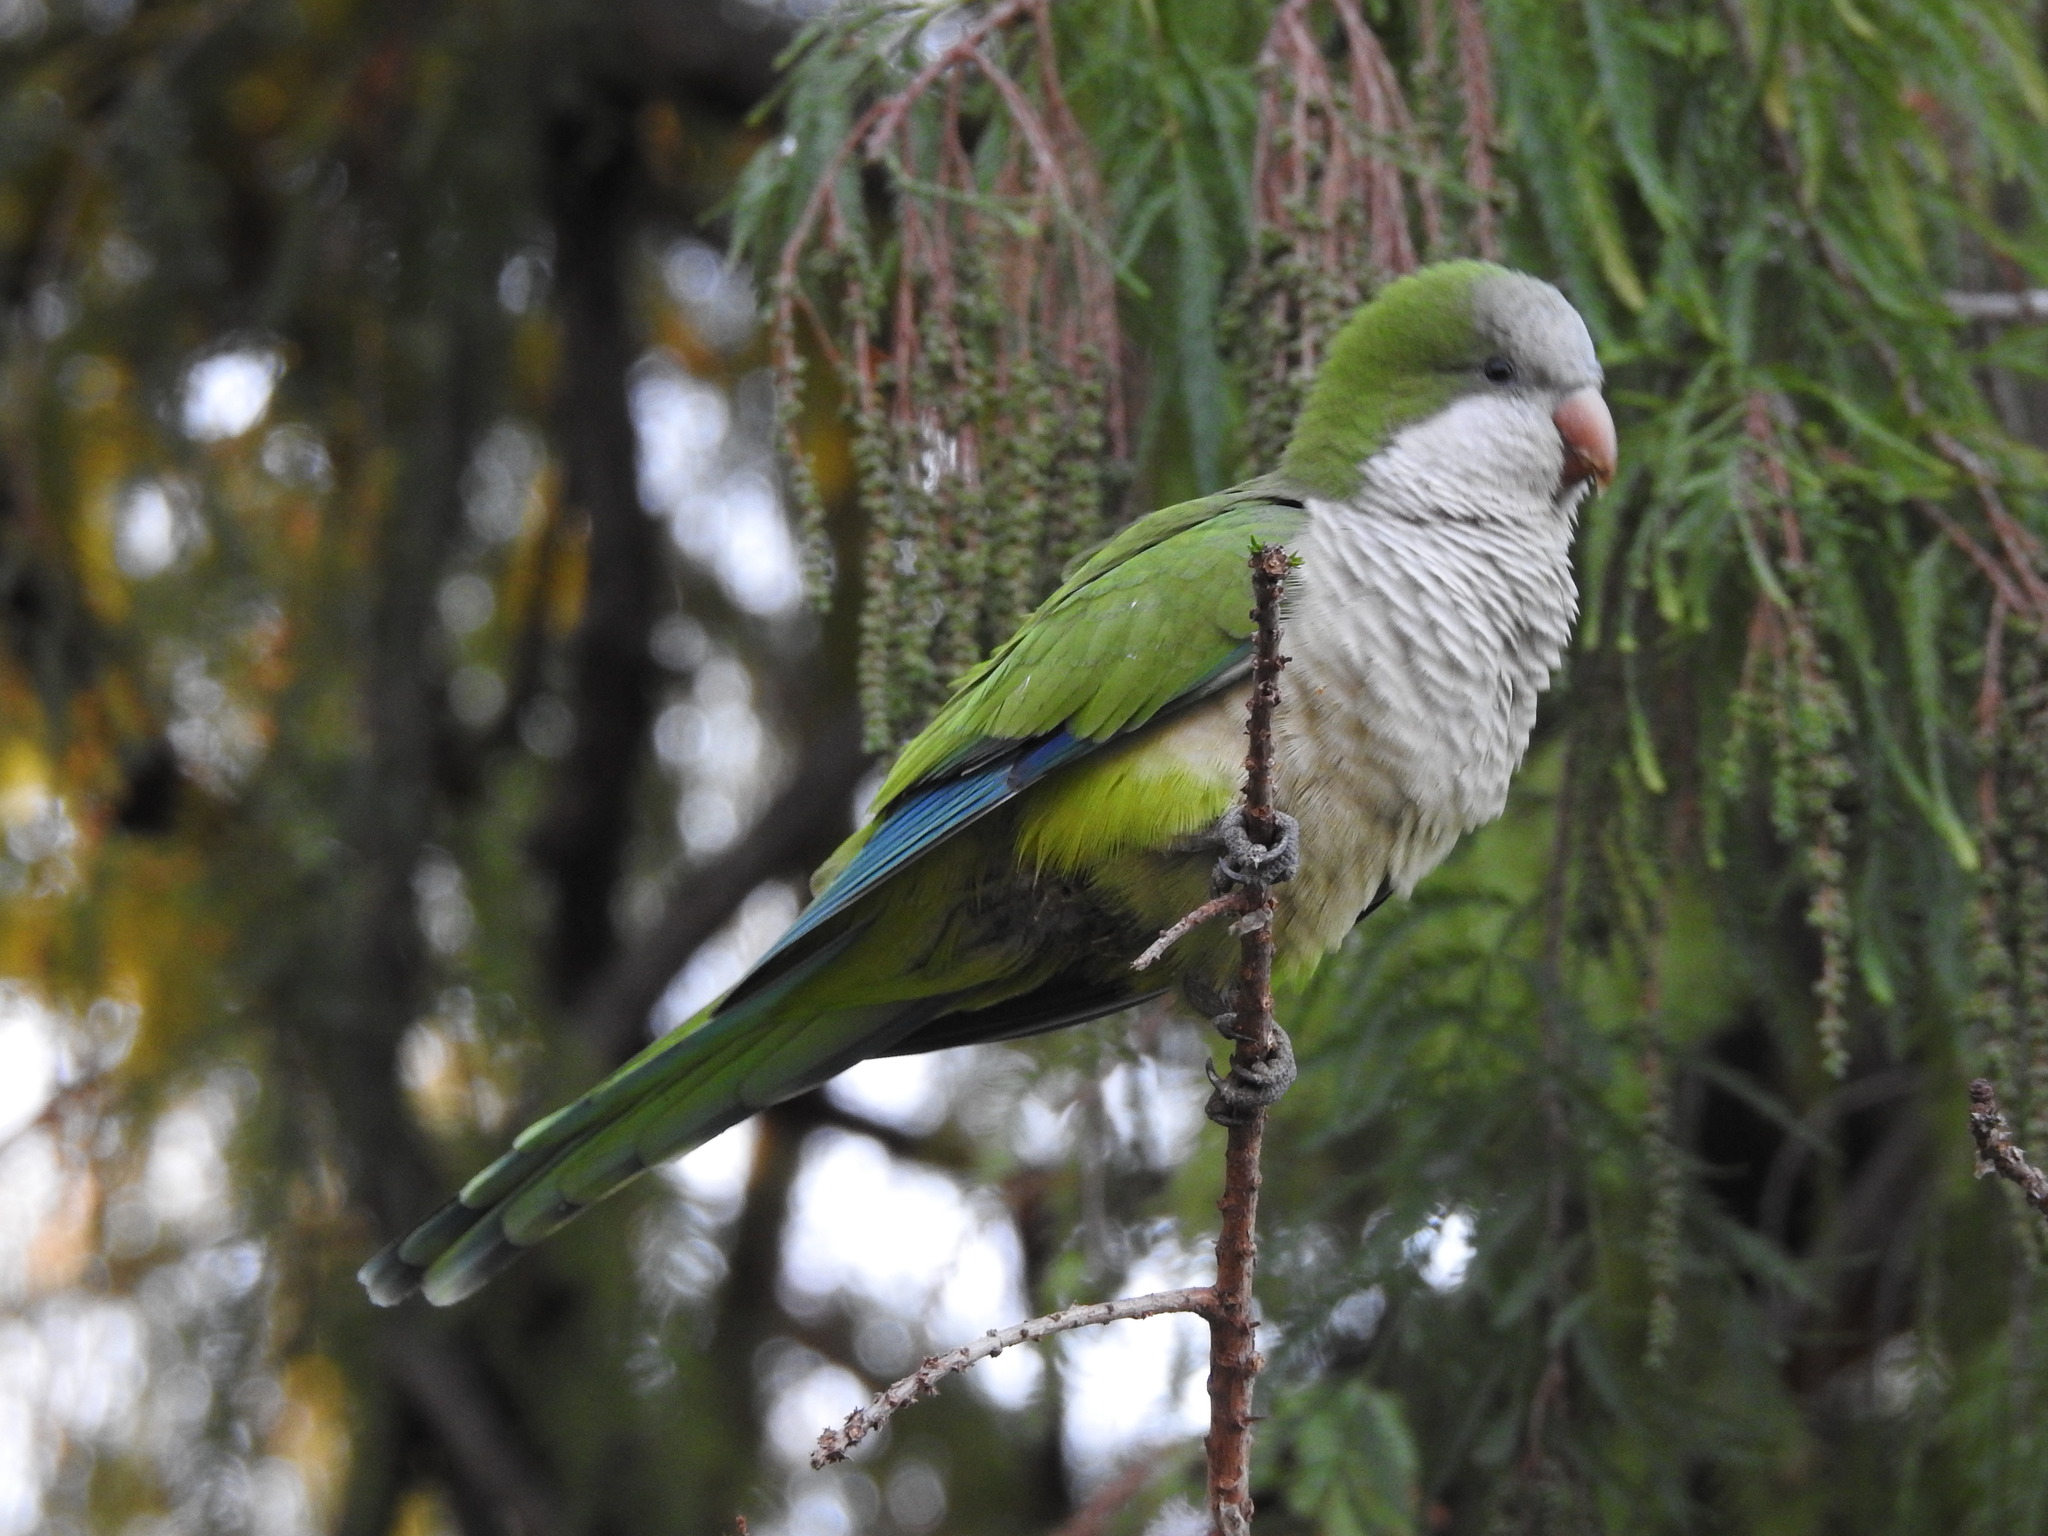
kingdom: Animalia
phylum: Chordata
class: Aves
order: Psittaciformes
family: Psittacidae
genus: Myiopsitta
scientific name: Myiopsitta monachus
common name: Monk parakeet
